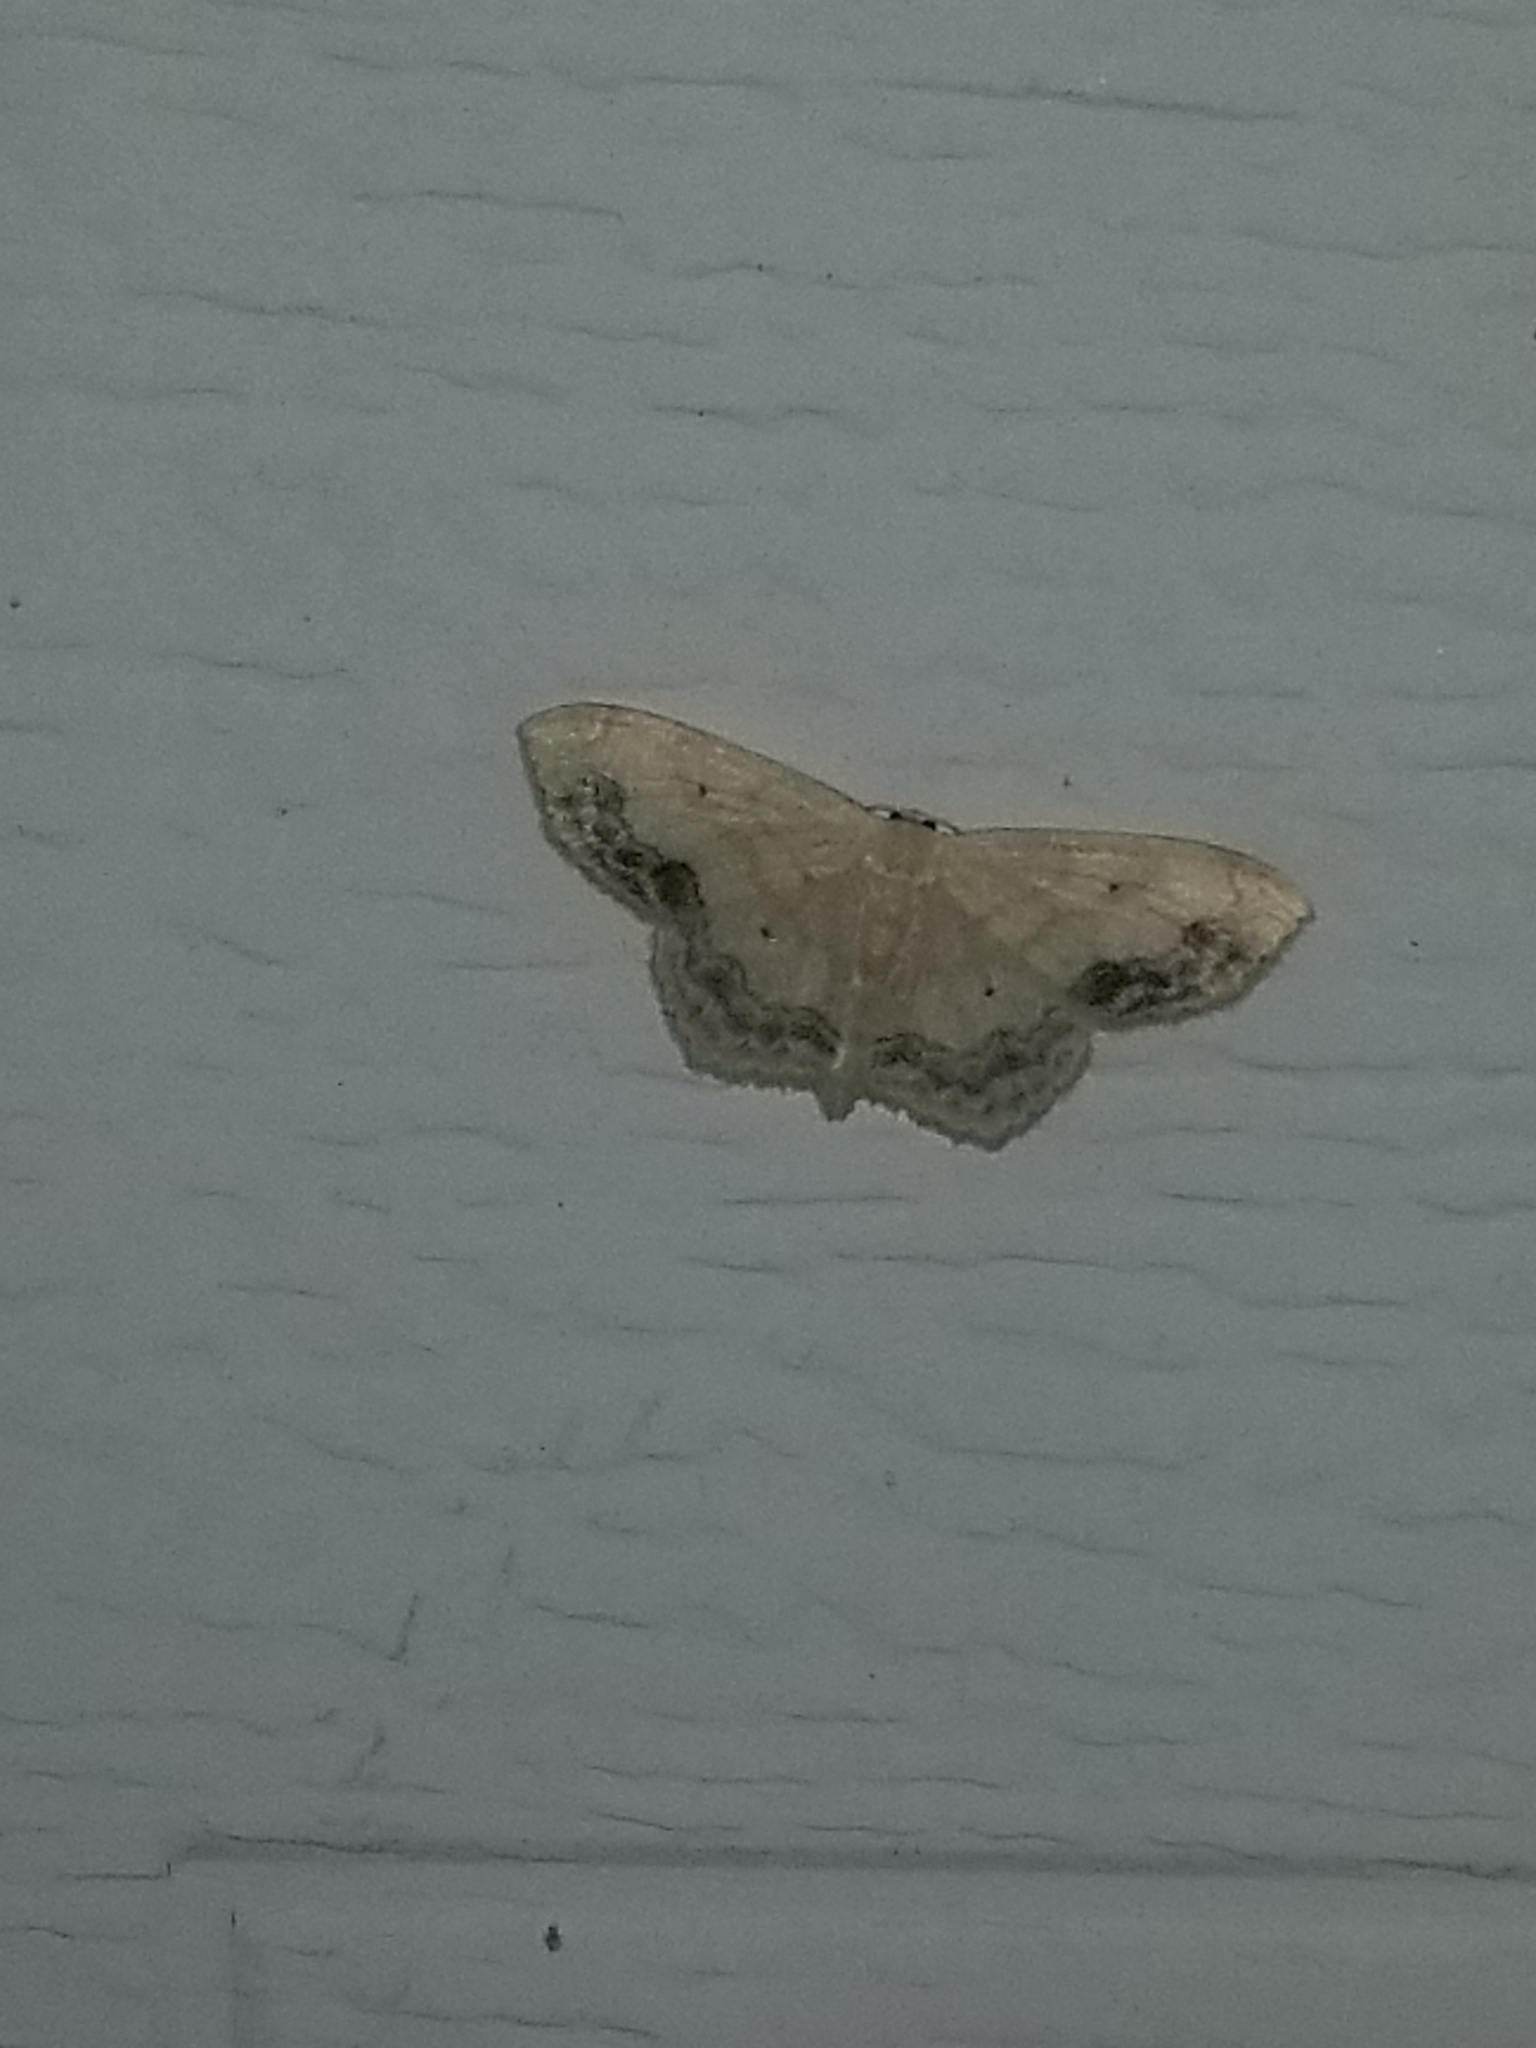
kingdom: Animalia
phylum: Arthropoda
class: Insecta
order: Lepidoptera
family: Geometridae
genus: Scopula
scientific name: Scopula limboundata
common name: Large lace border
